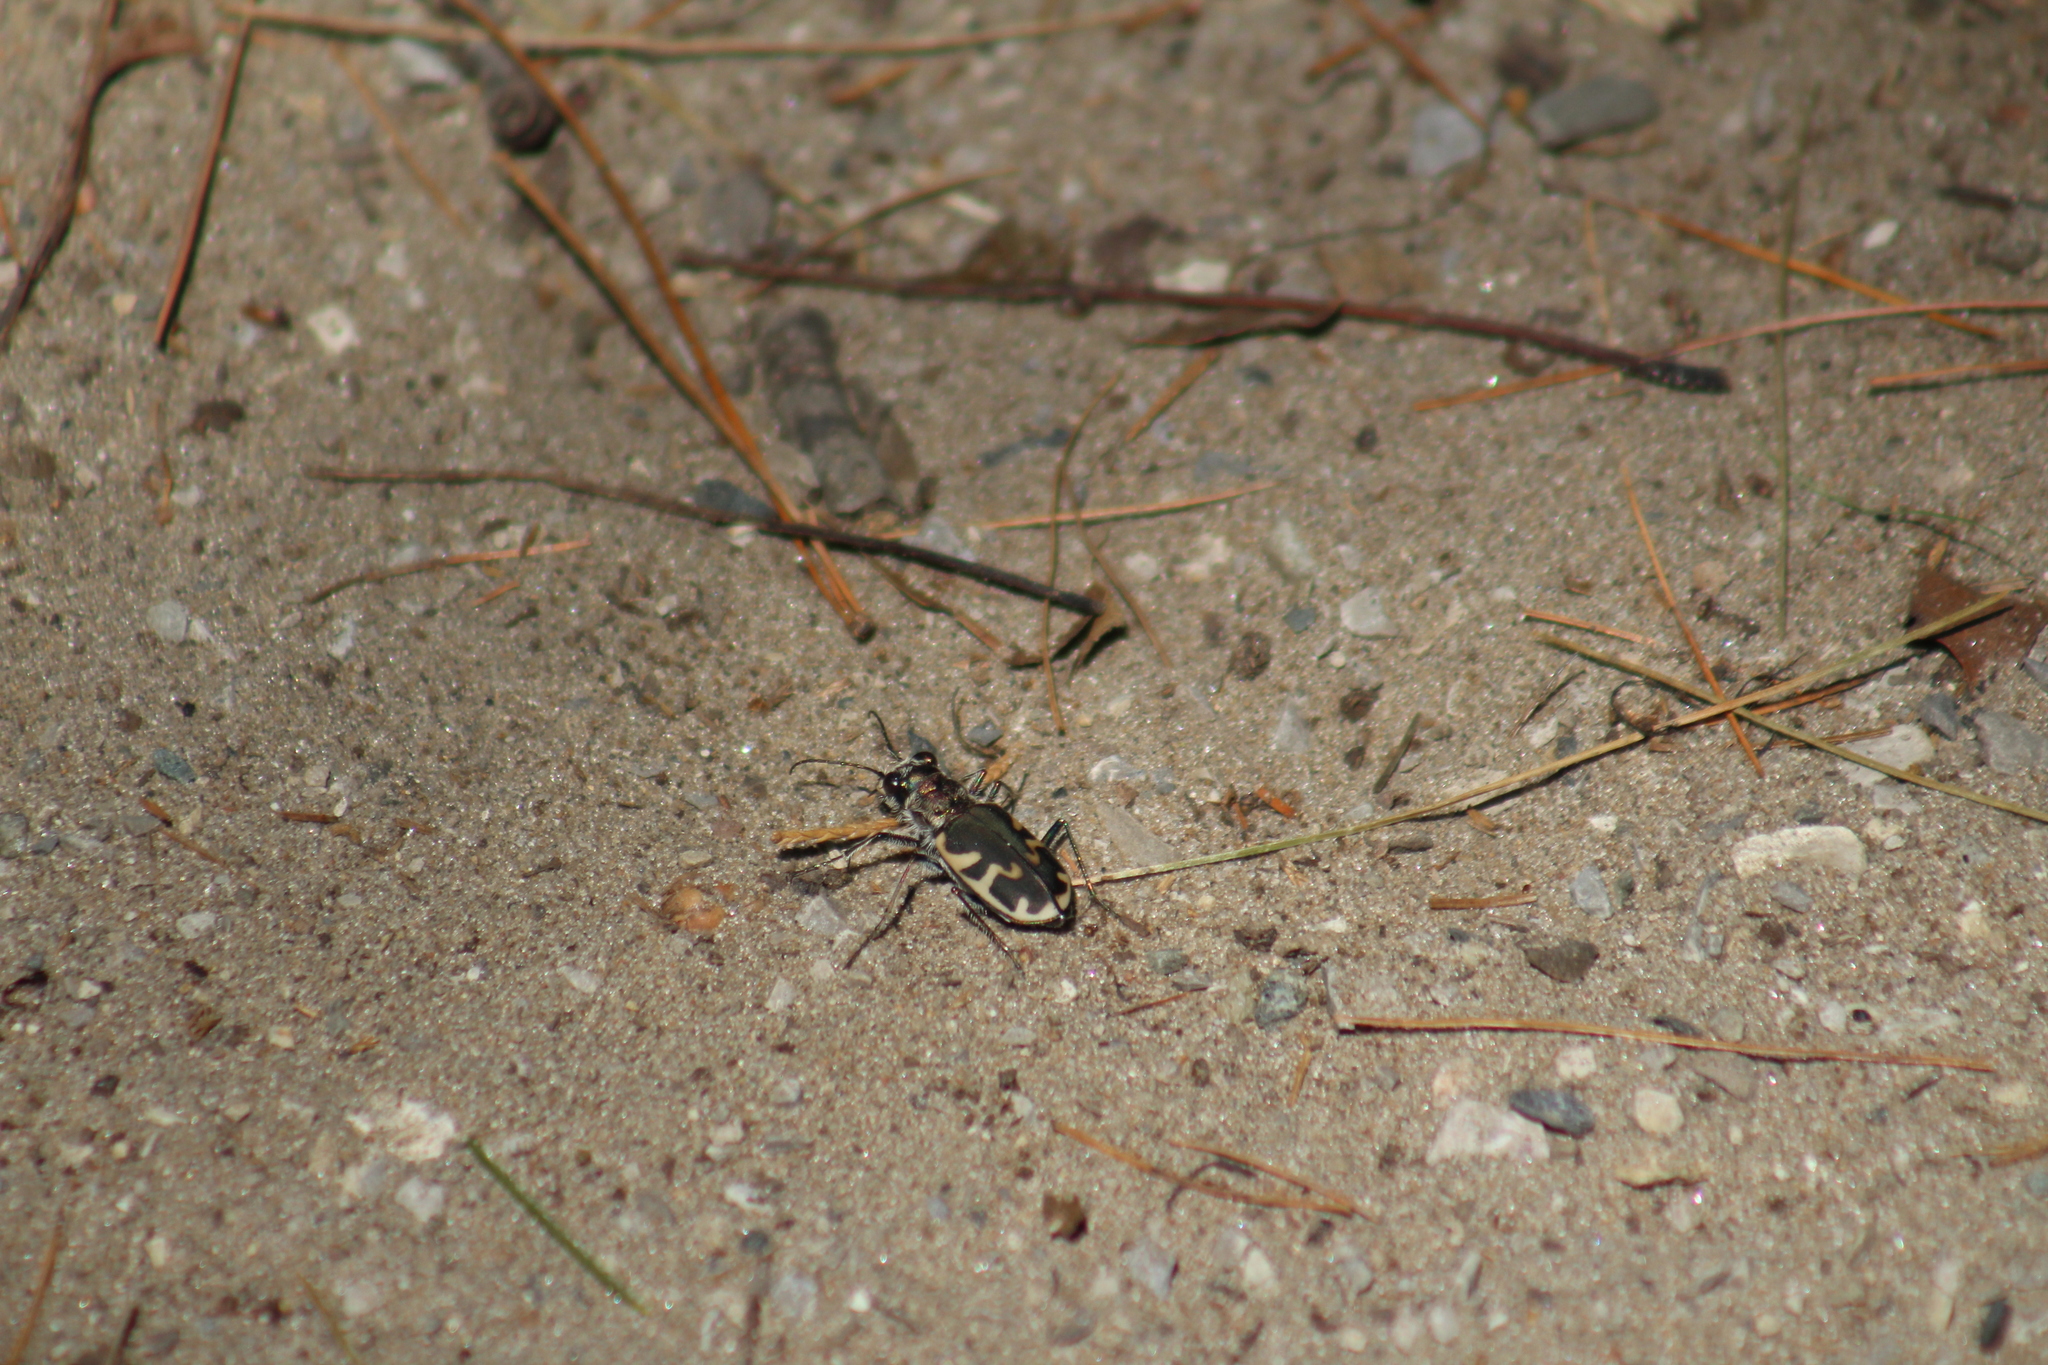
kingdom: Animalia
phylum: Arthropoda
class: Insecta
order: Coleoptera
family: Carabidae
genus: Cicindela
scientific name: Cicindela formosa
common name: Big sand tiger beetle
